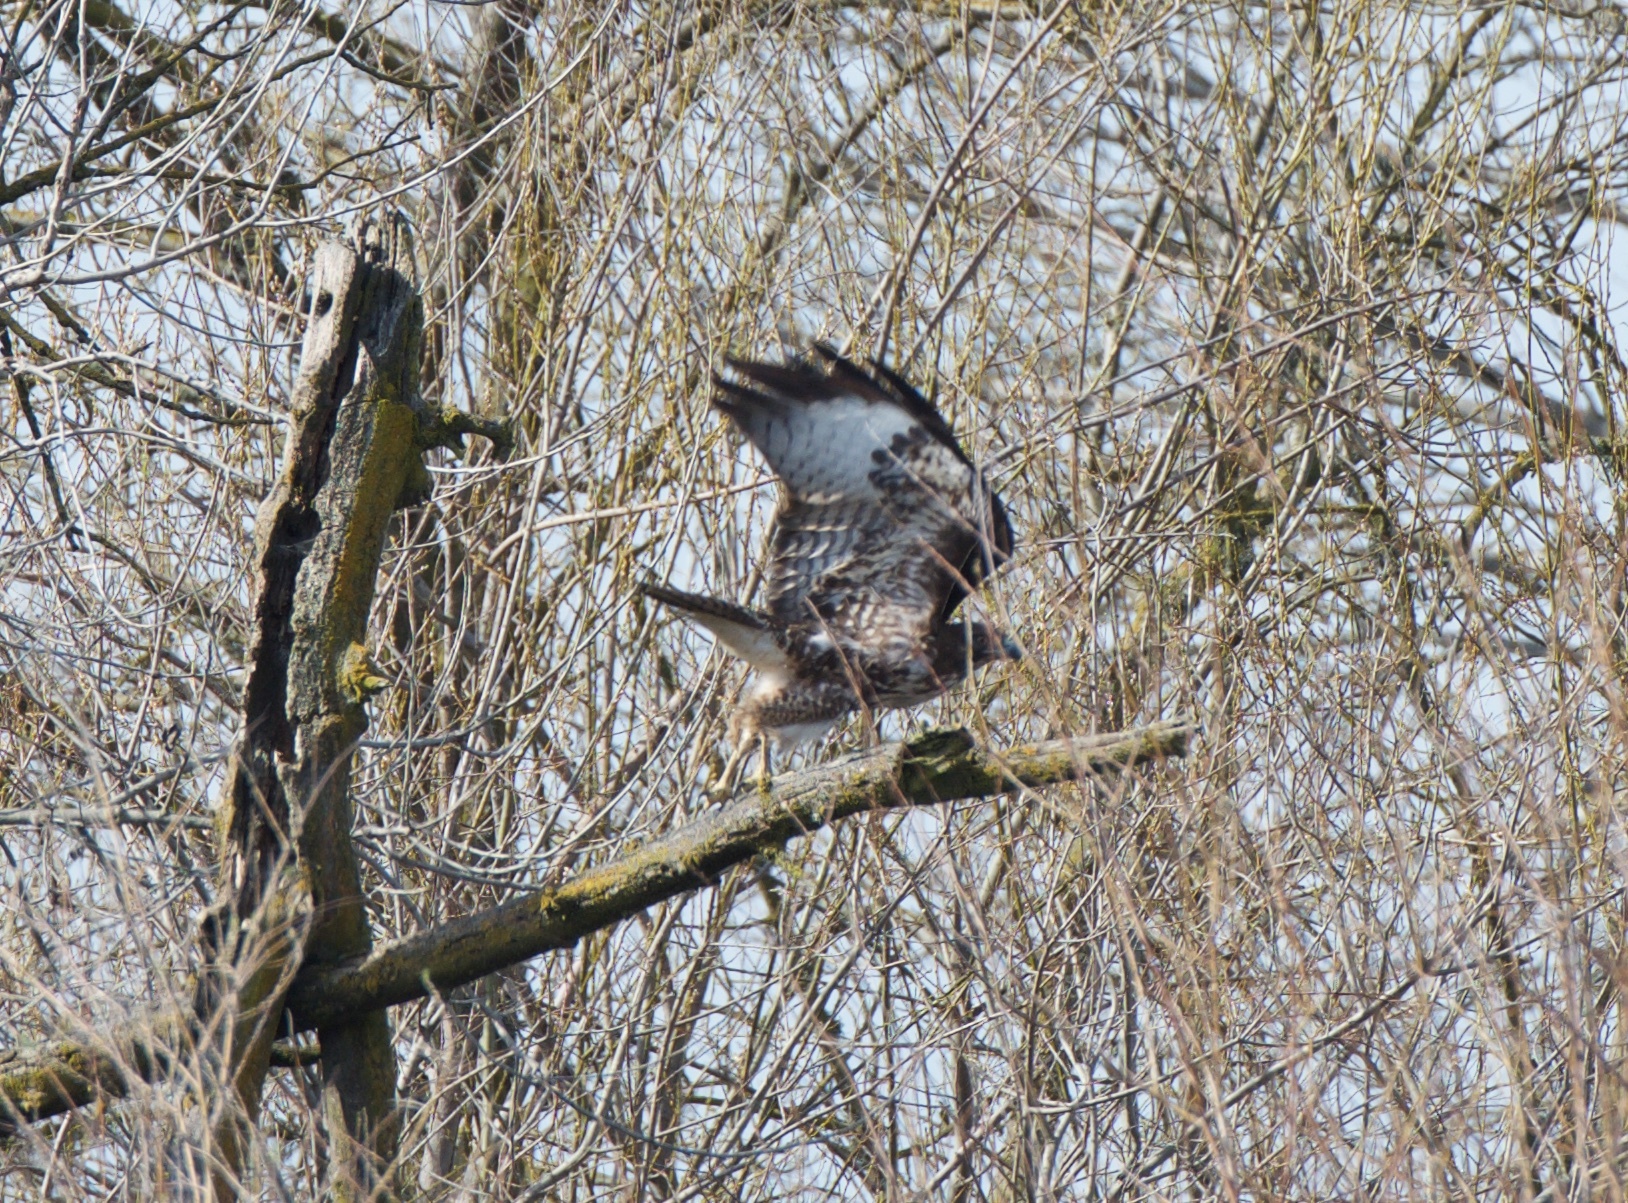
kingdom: Animalia
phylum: Chordata
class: Aves
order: Accipitriformes
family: Accipitridae
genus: Buteo
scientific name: Buteo jamaicensis
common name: Red-tailed hawk
